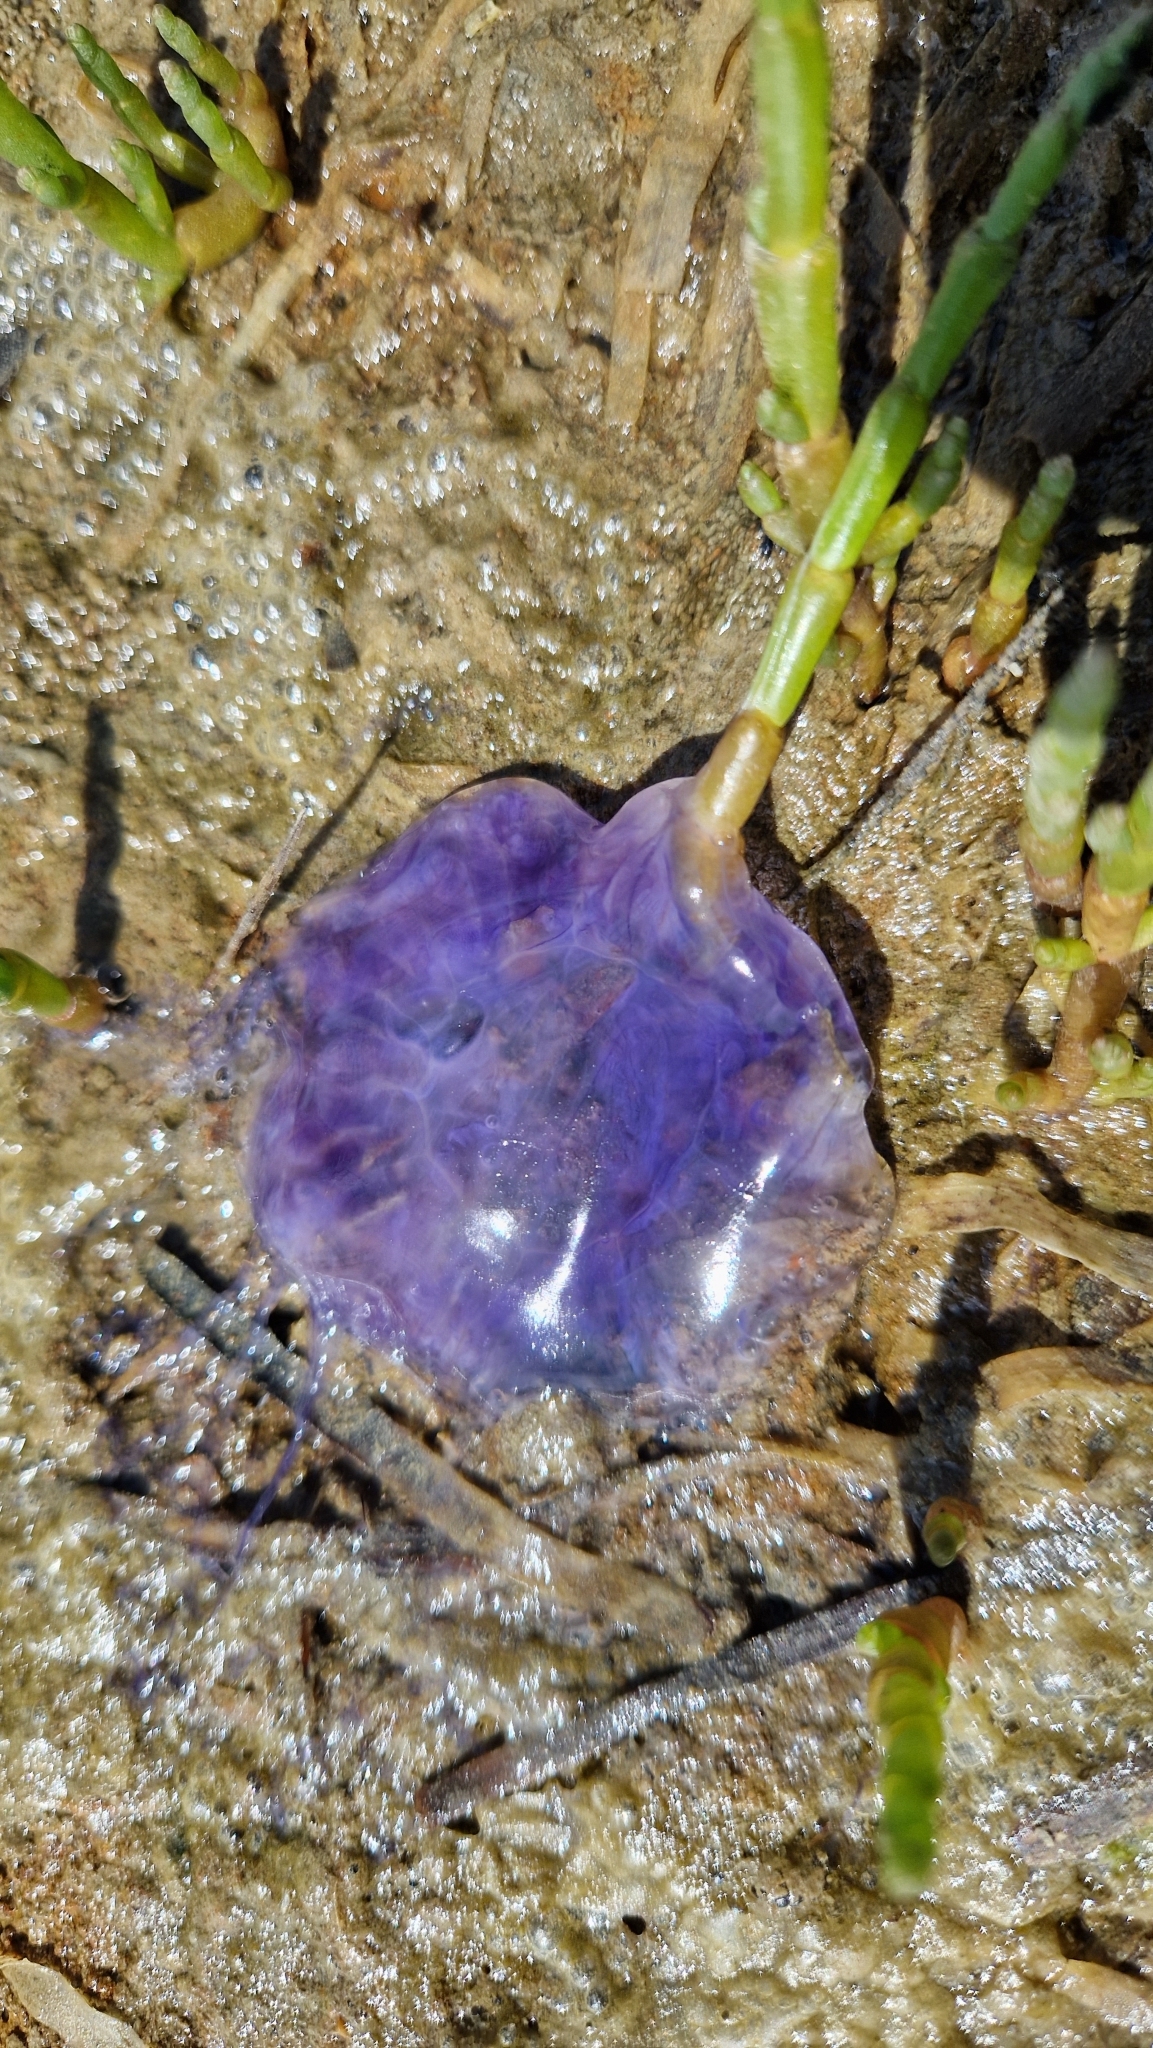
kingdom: Animalia
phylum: Cnidaria
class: Scyphozoa
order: Semaeostomeae
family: Cyaneidae
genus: Cyanea
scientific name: Cyanea lamarckii
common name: Blue jellyfish
